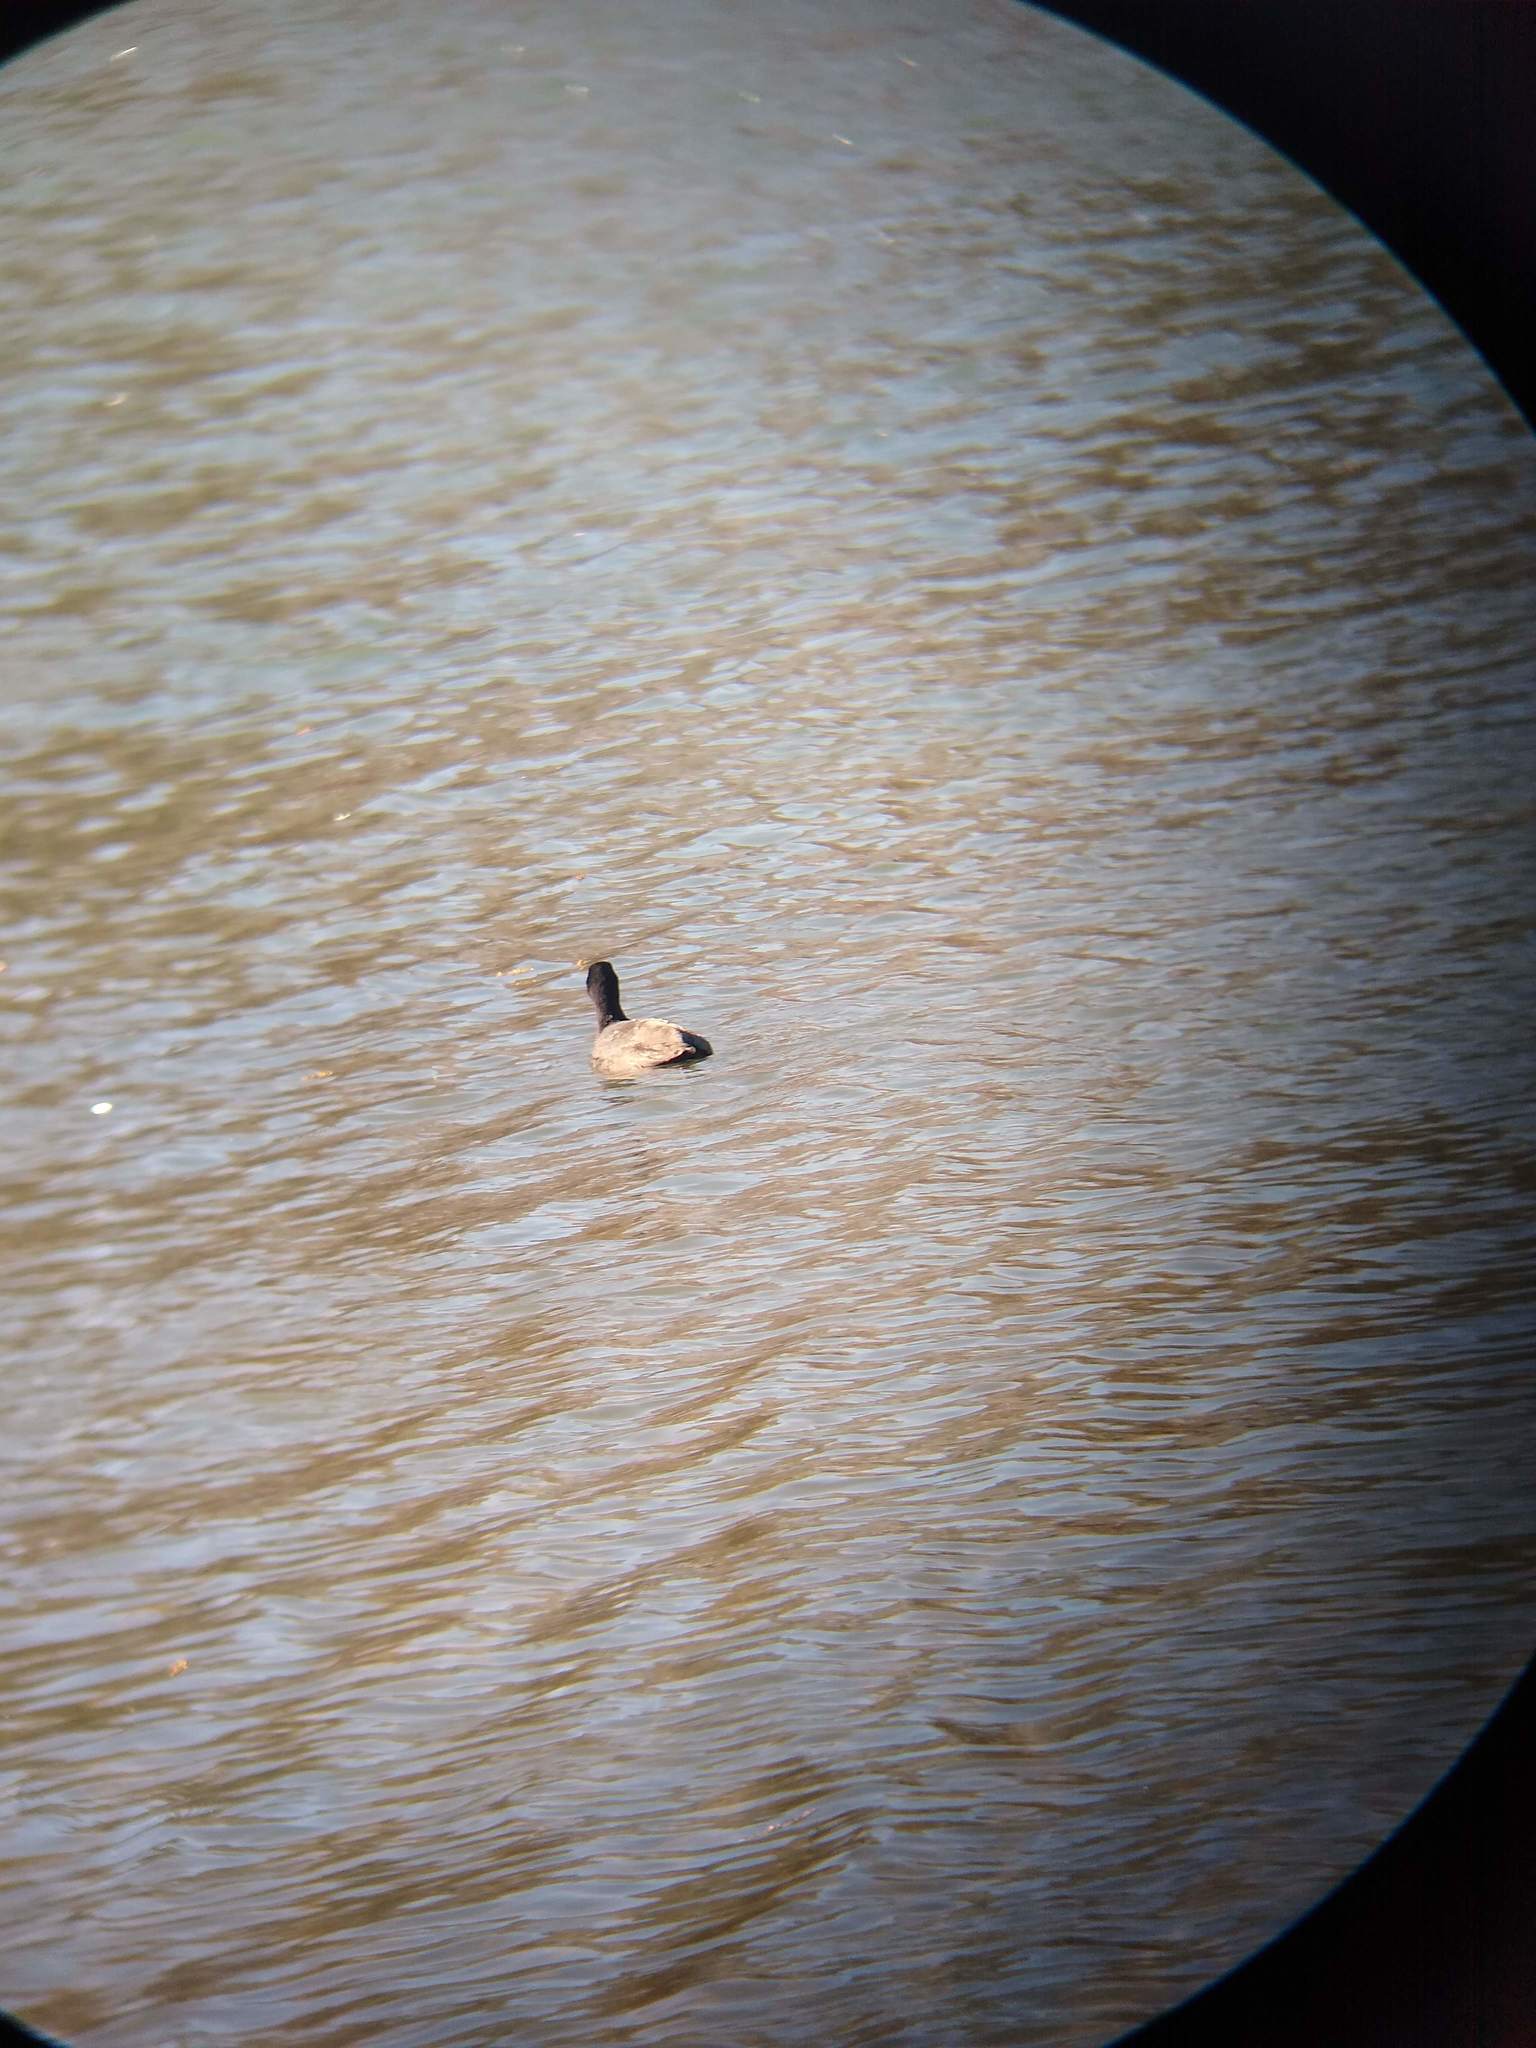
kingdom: Animalia
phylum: Chordata
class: Aves
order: Gruiformes
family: Rallidae
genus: Fulica
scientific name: Fulica americana
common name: American coot
